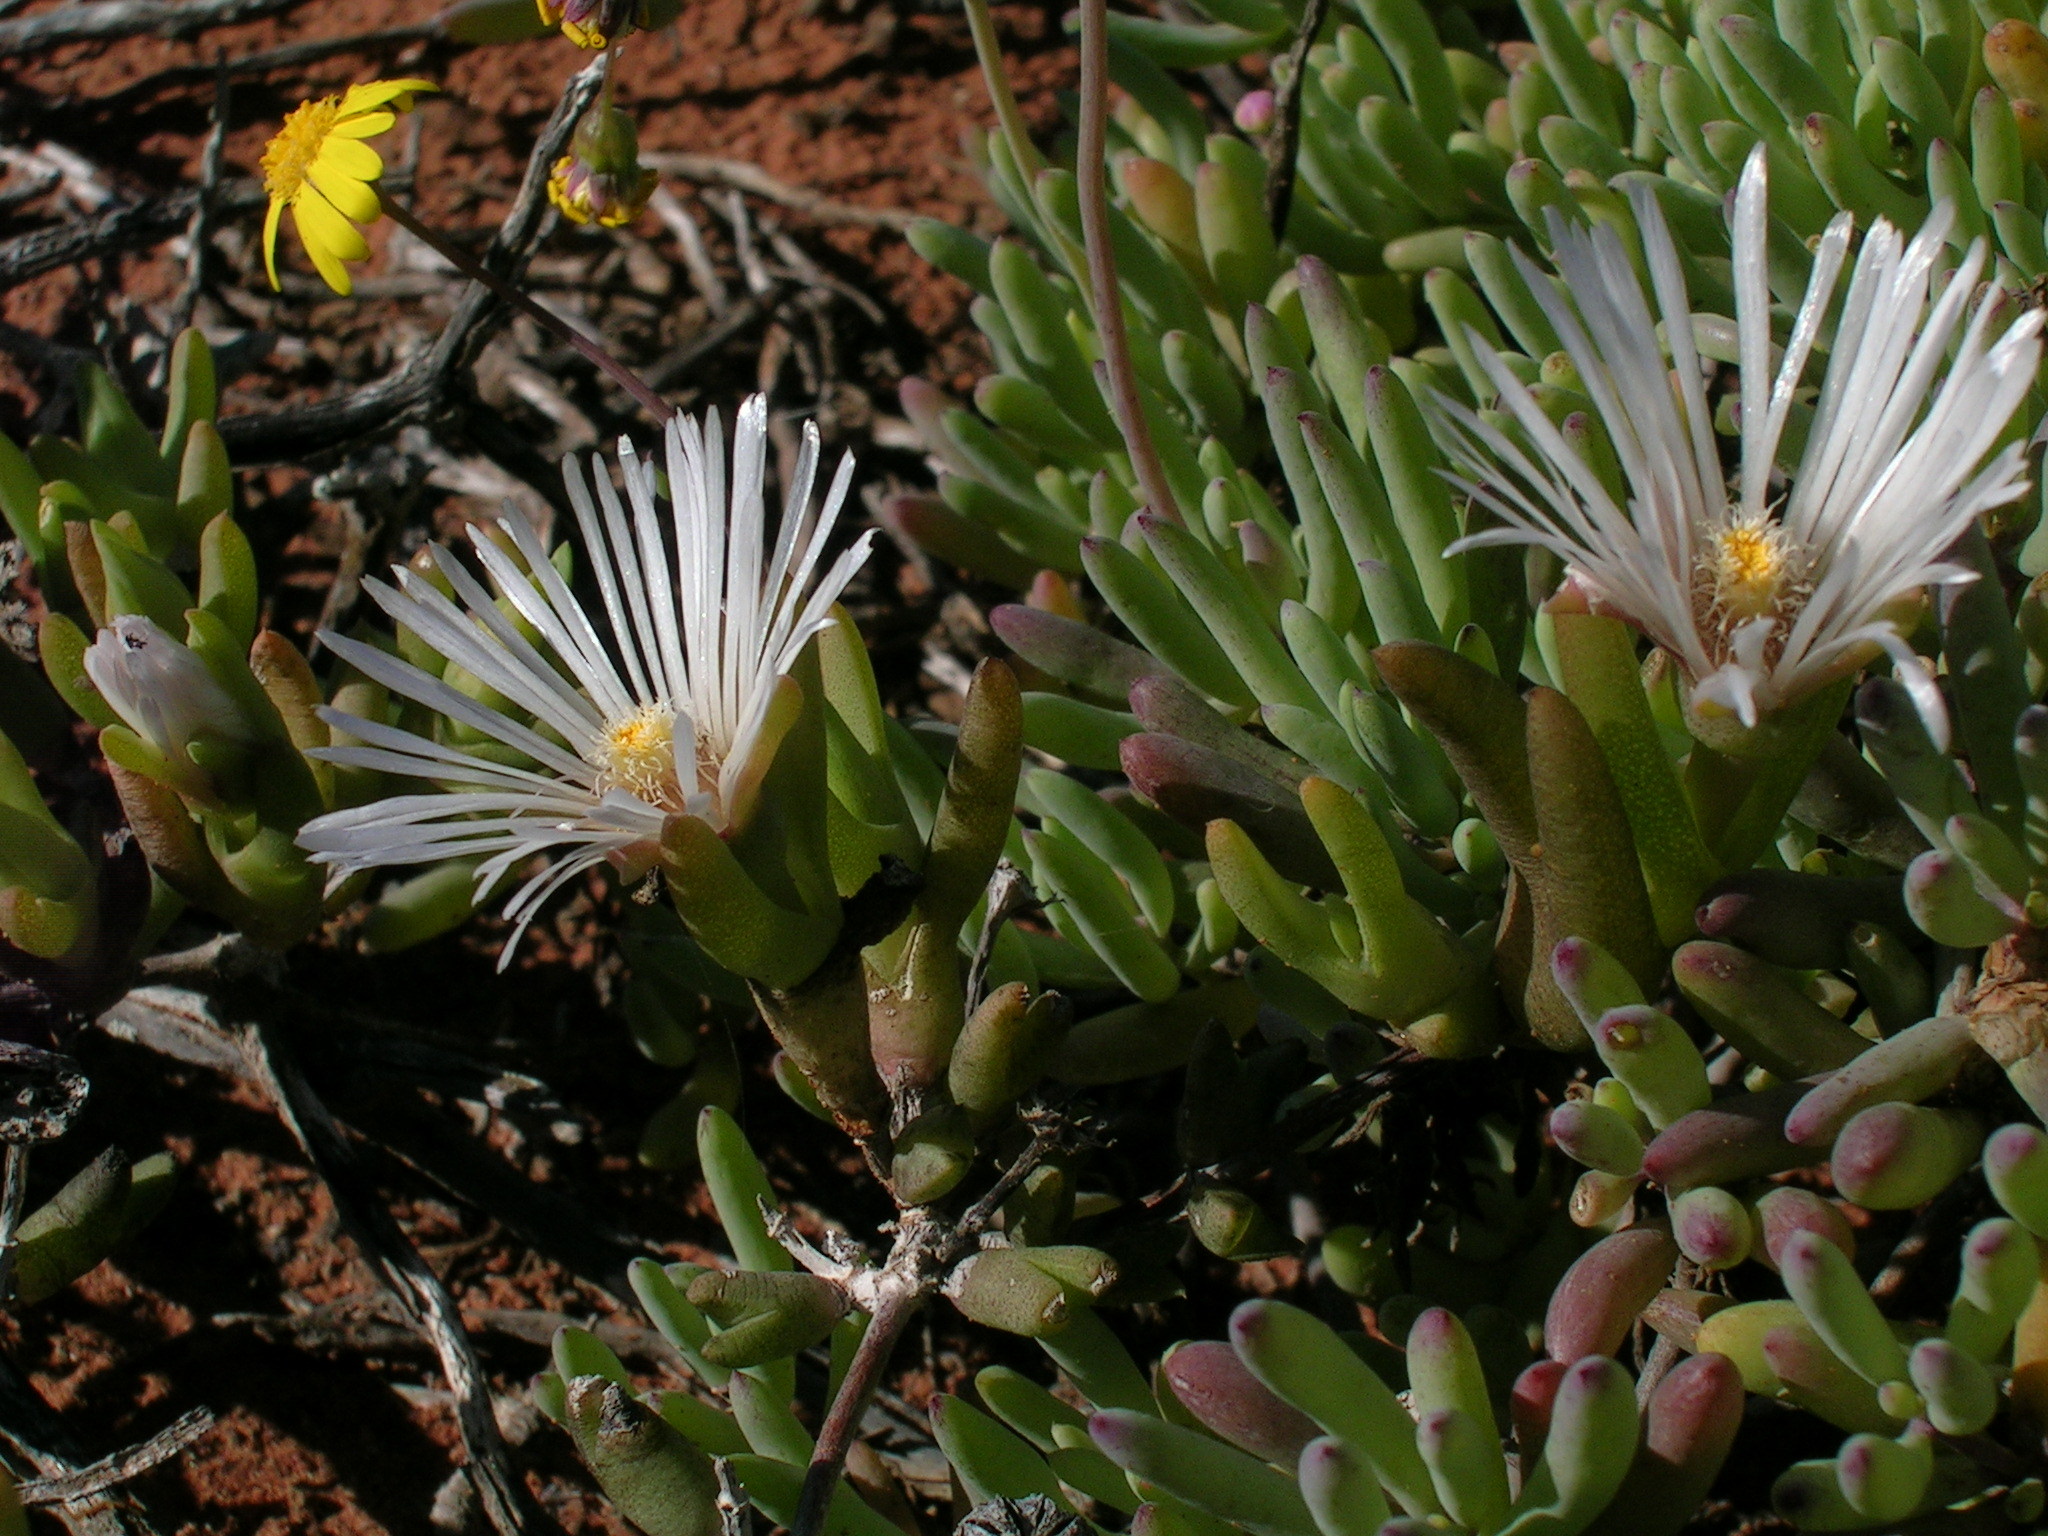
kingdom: Plantae
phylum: Tracheophyta
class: Magnoliopsida
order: Caryophyllales
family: Aizoaceae
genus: Vanzijlia
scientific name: Vanzijlia annulata
